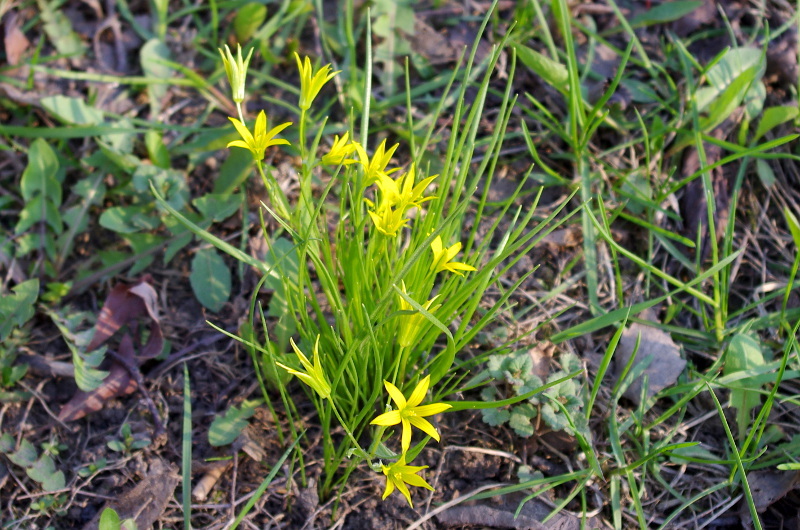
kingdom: Plantae
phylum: Tracheophyta
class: Liliopsida
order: Liliales
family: Liliaceae
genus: Gagea
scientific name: Gagea minima
